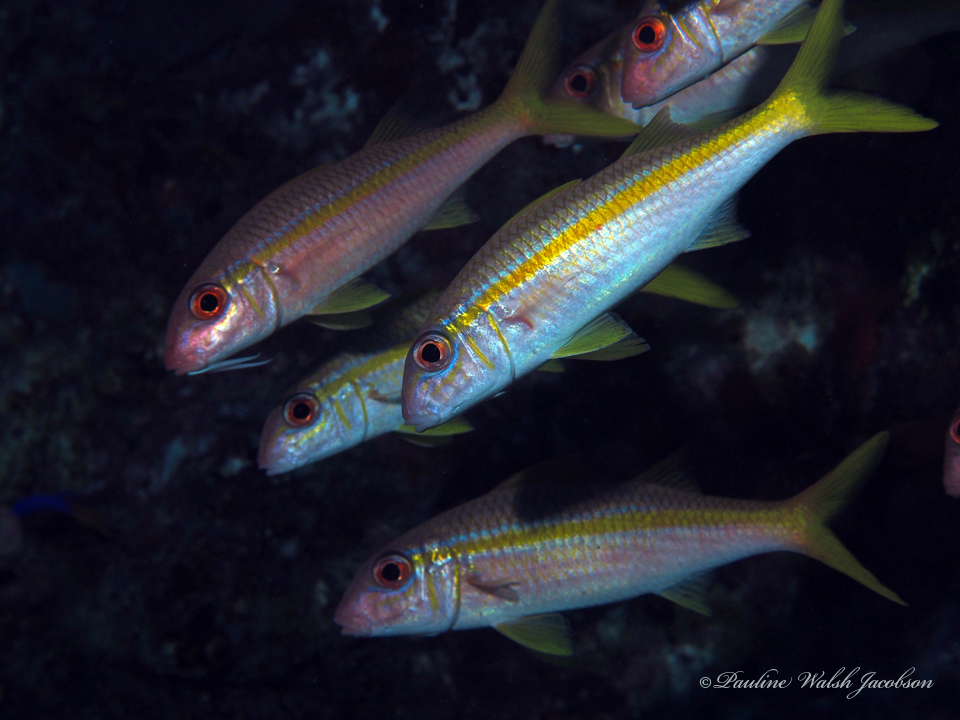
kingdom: Animalia
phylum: Chordata
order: Perciformes
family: Mullidae
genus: Mulloidichthys
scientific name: Mulloidichthys martinicus
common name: Yellow goatfish
